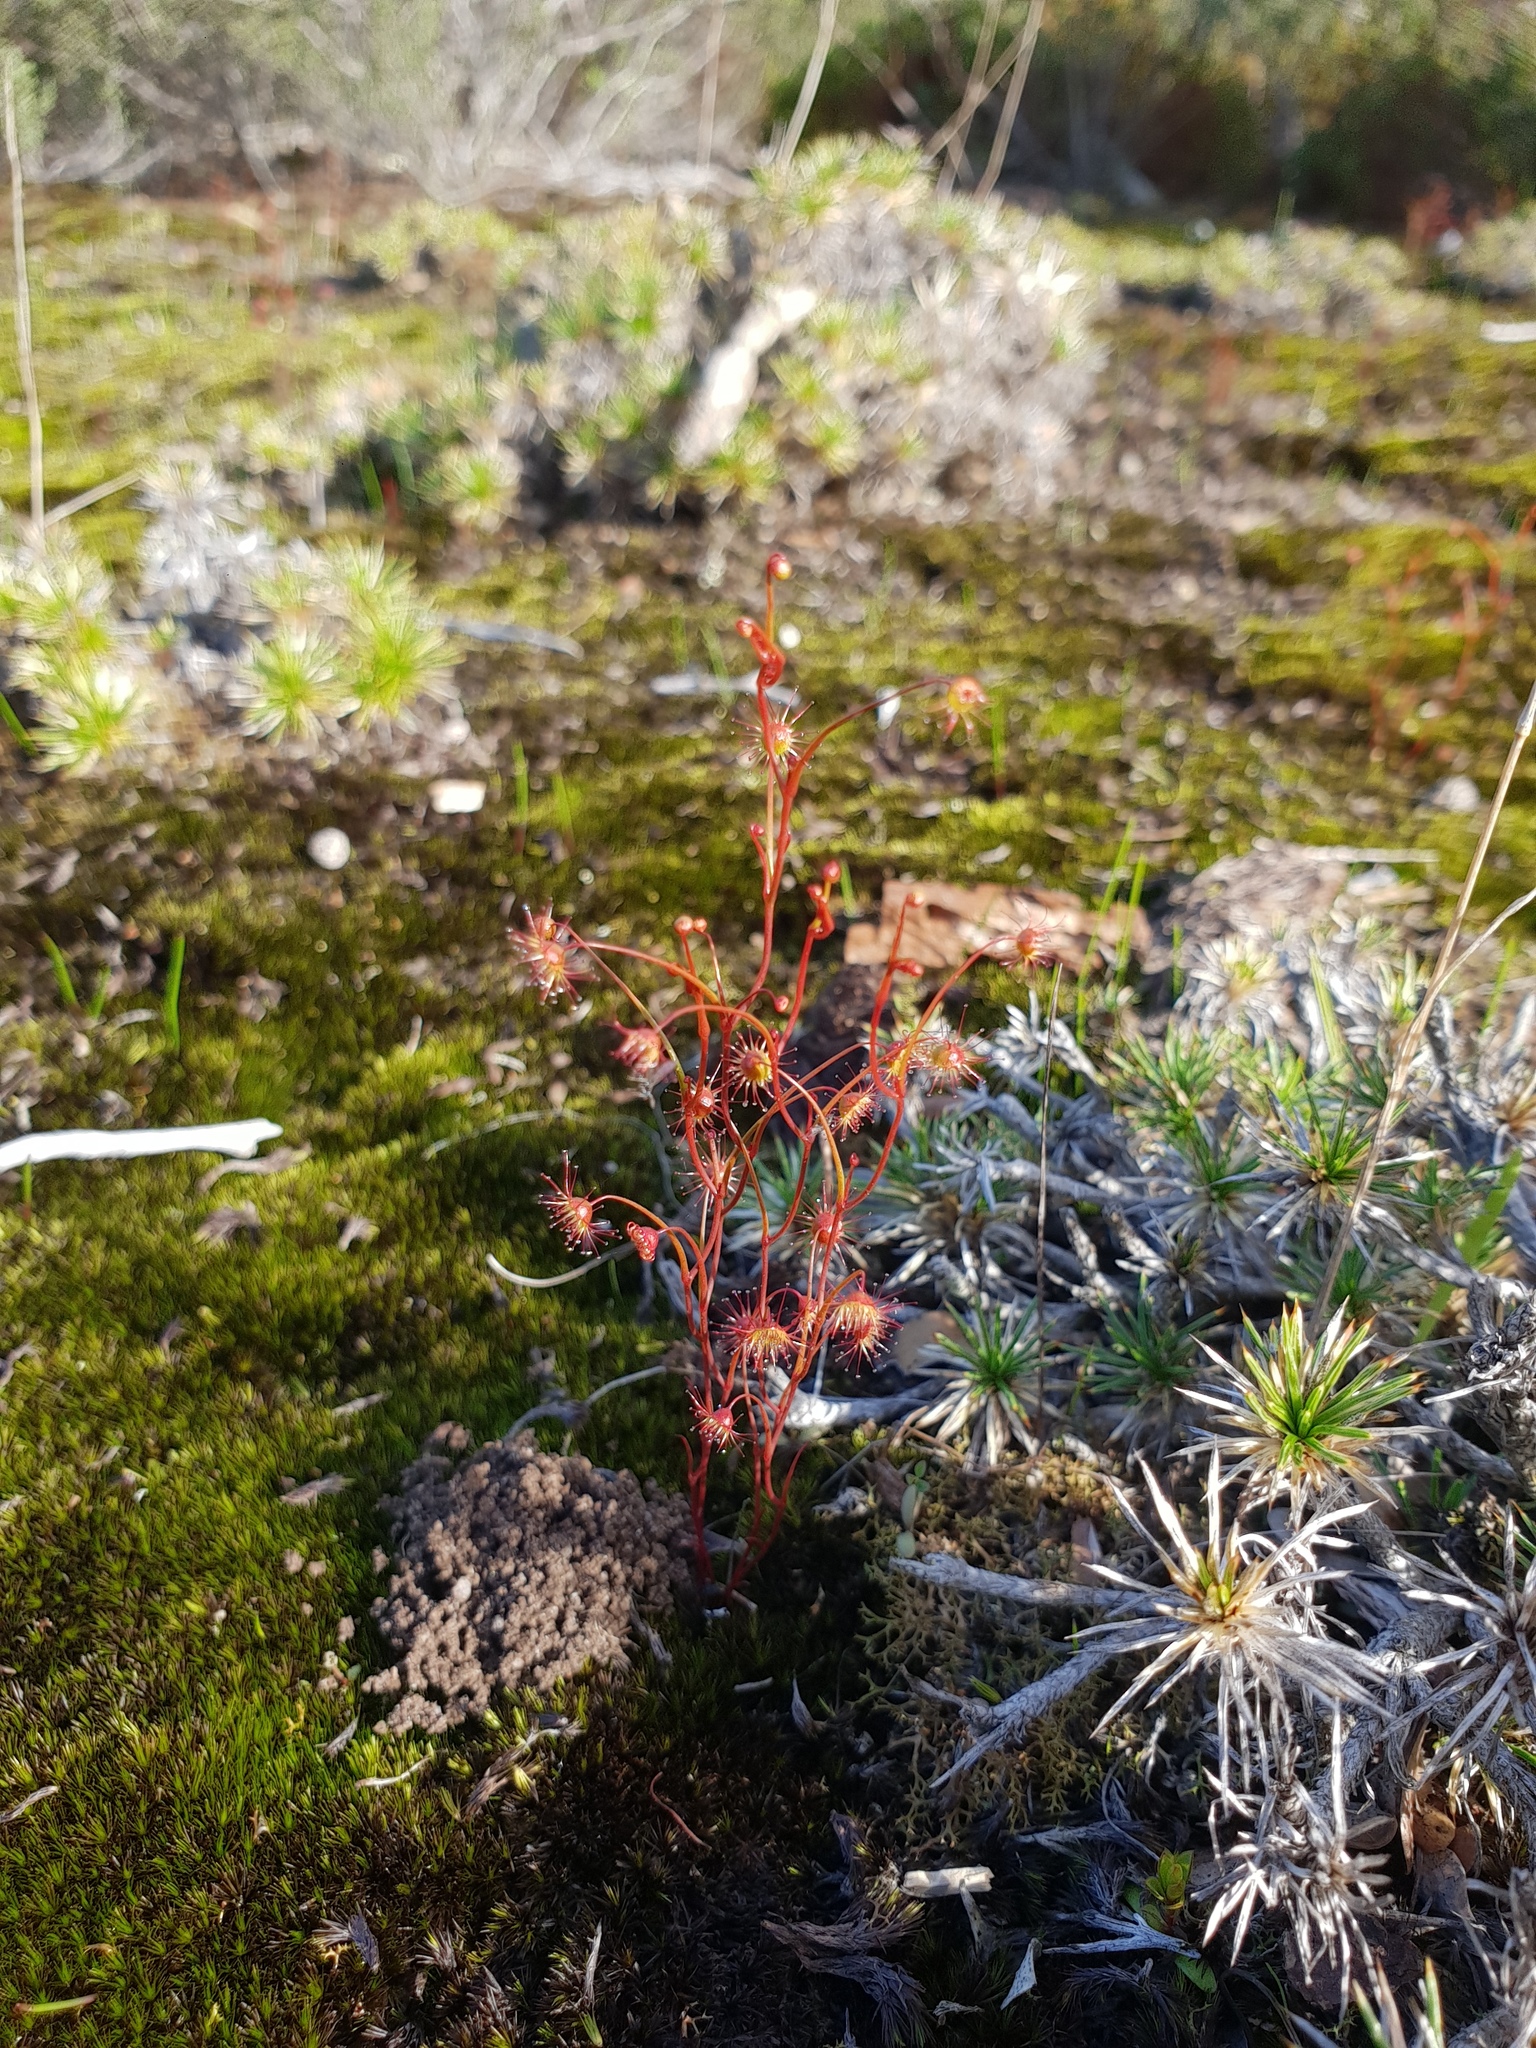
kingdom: Plantae
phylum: Tracheophyta
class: Magnoliopsida
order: Caryophyllales
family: Droseraceae
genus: Drosera
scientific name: Drosera
